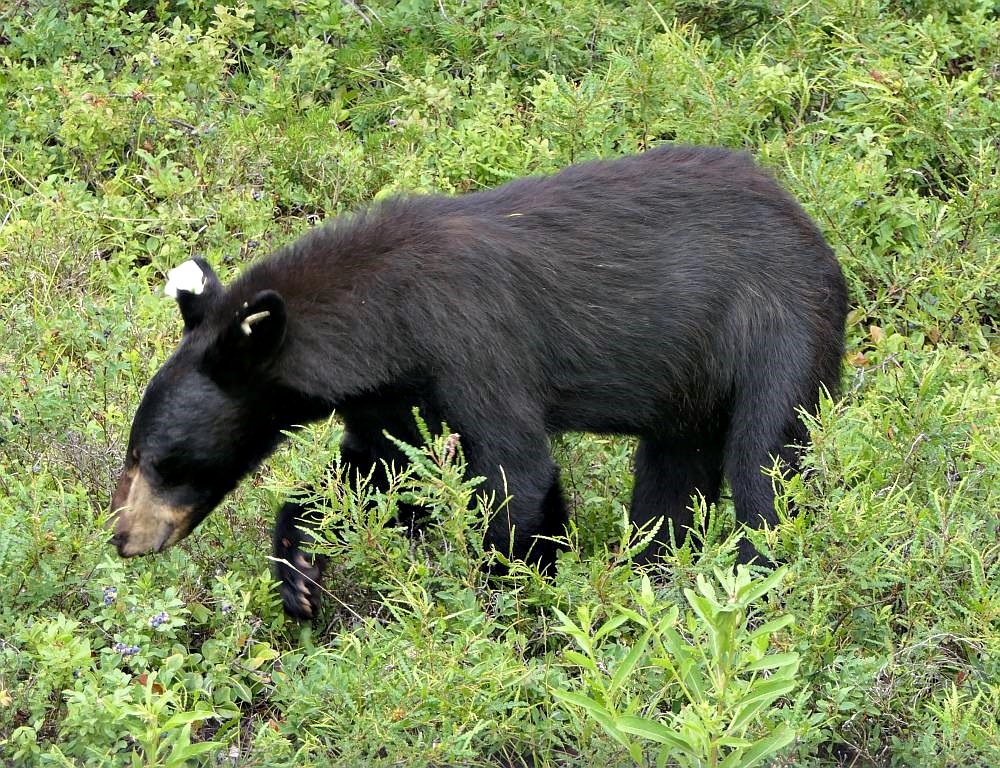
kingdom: Animalia
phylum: Chordata
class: Mammalia
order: Carnivora
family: Ursidae
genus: Ursus
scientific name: Ursus americanus
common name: American black bear
